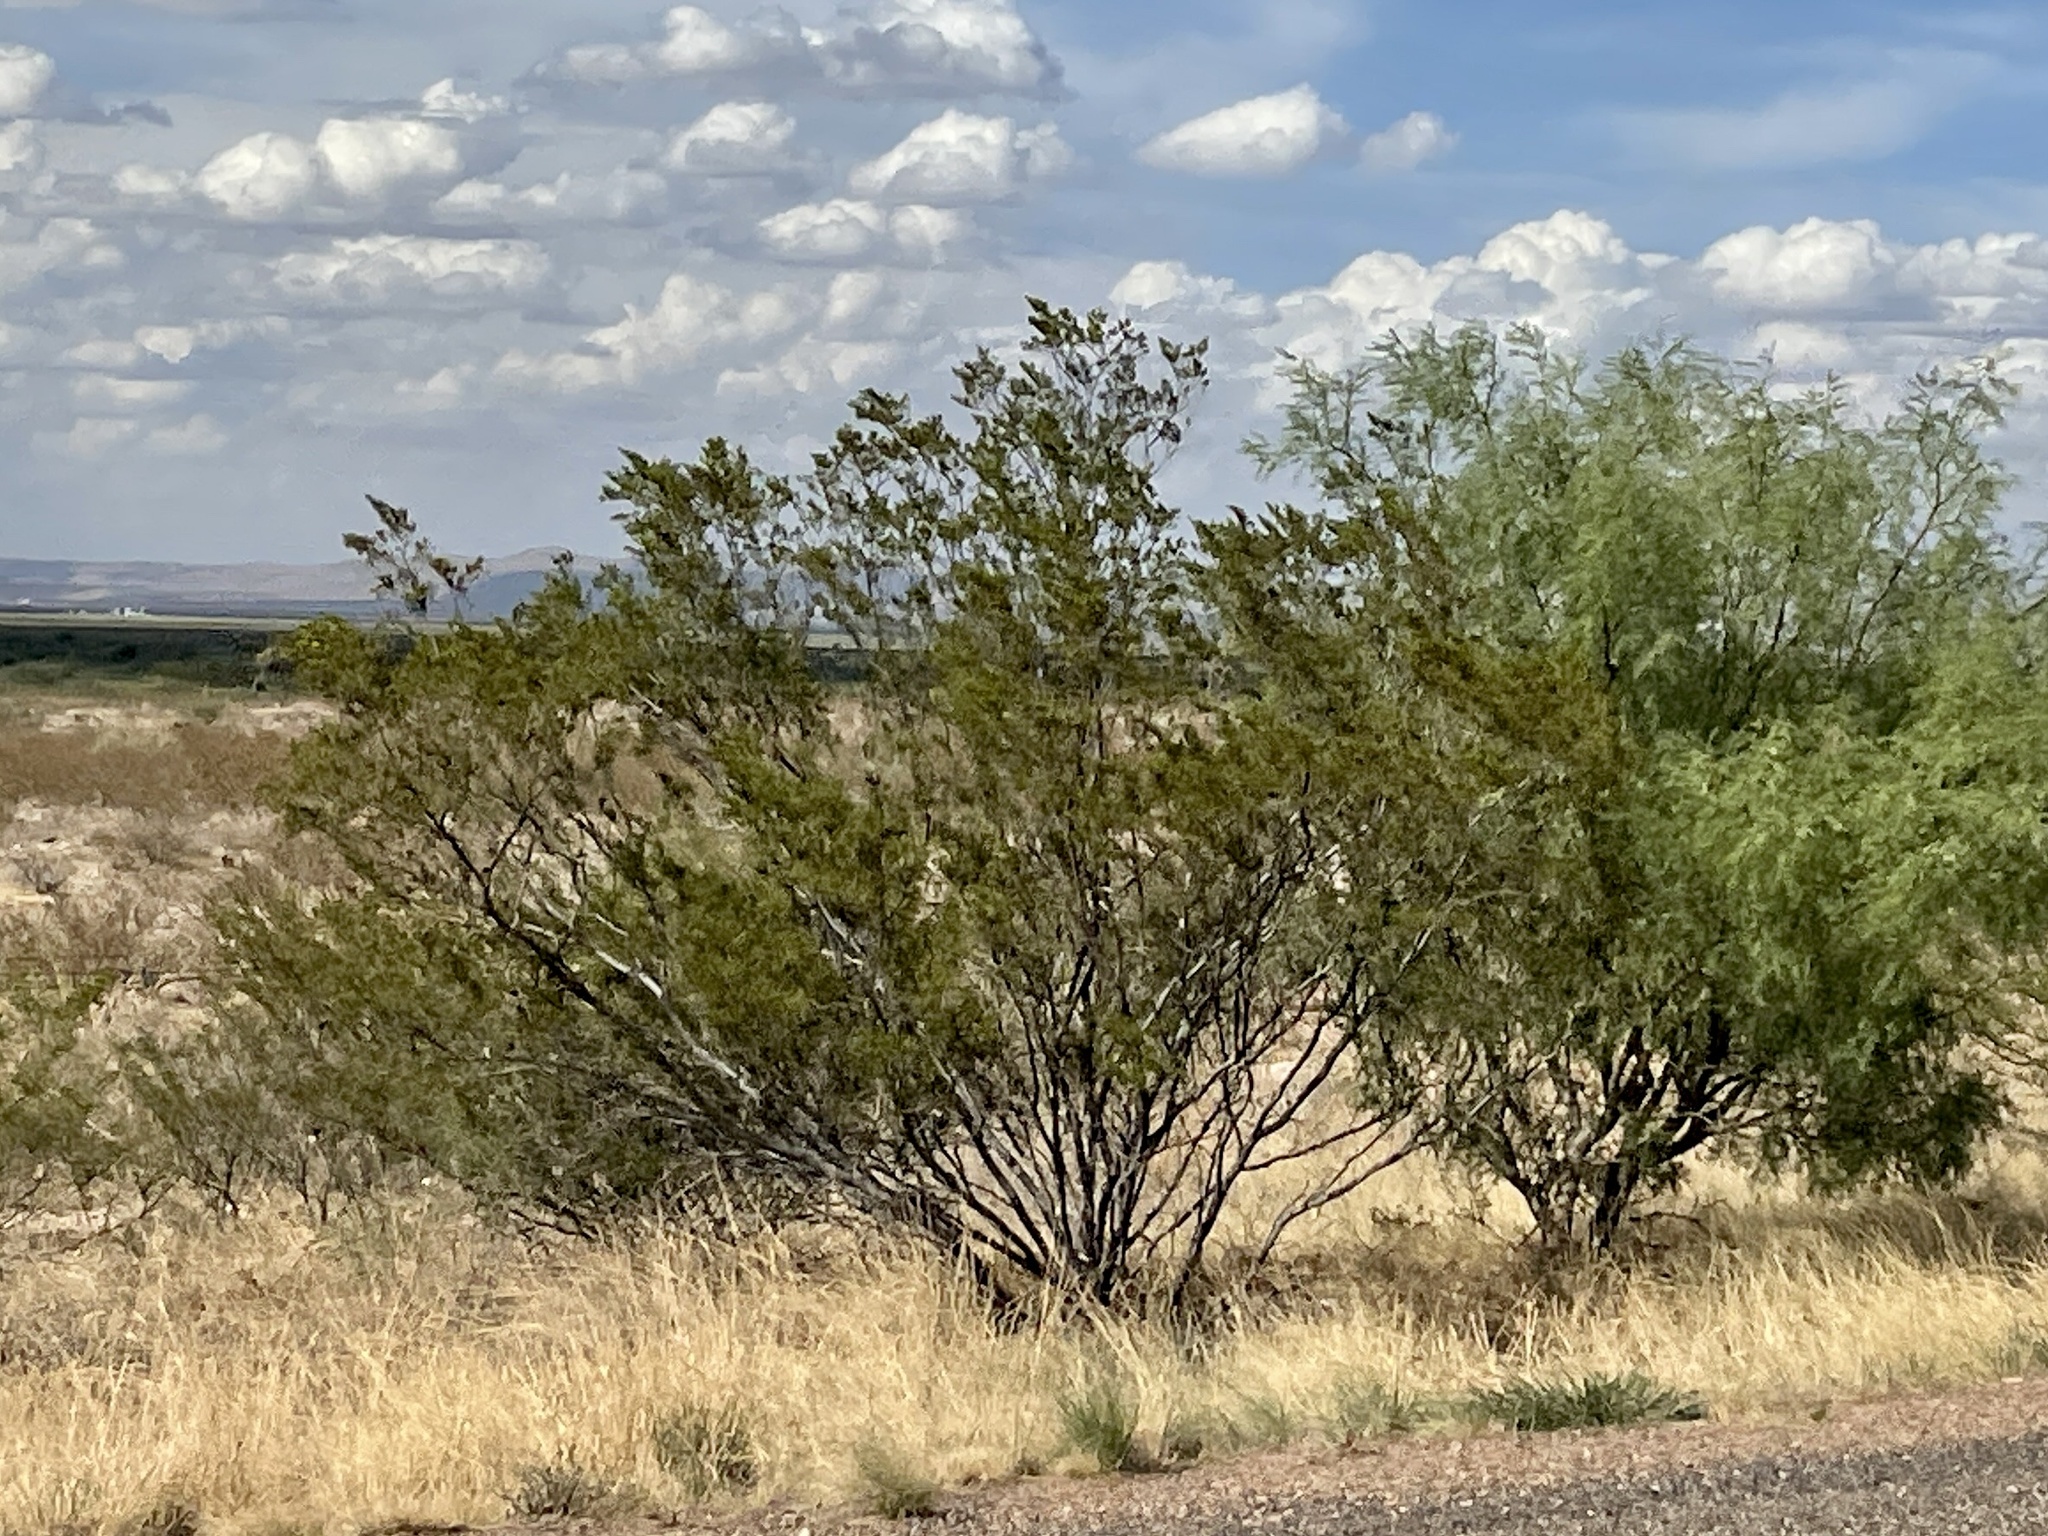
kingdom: Plantae
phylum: Tracheophyta
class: Magnoliopsida
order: Zygophyllales
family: Zygophyllaceae
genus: Larrea
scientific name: Larrea tridentata
